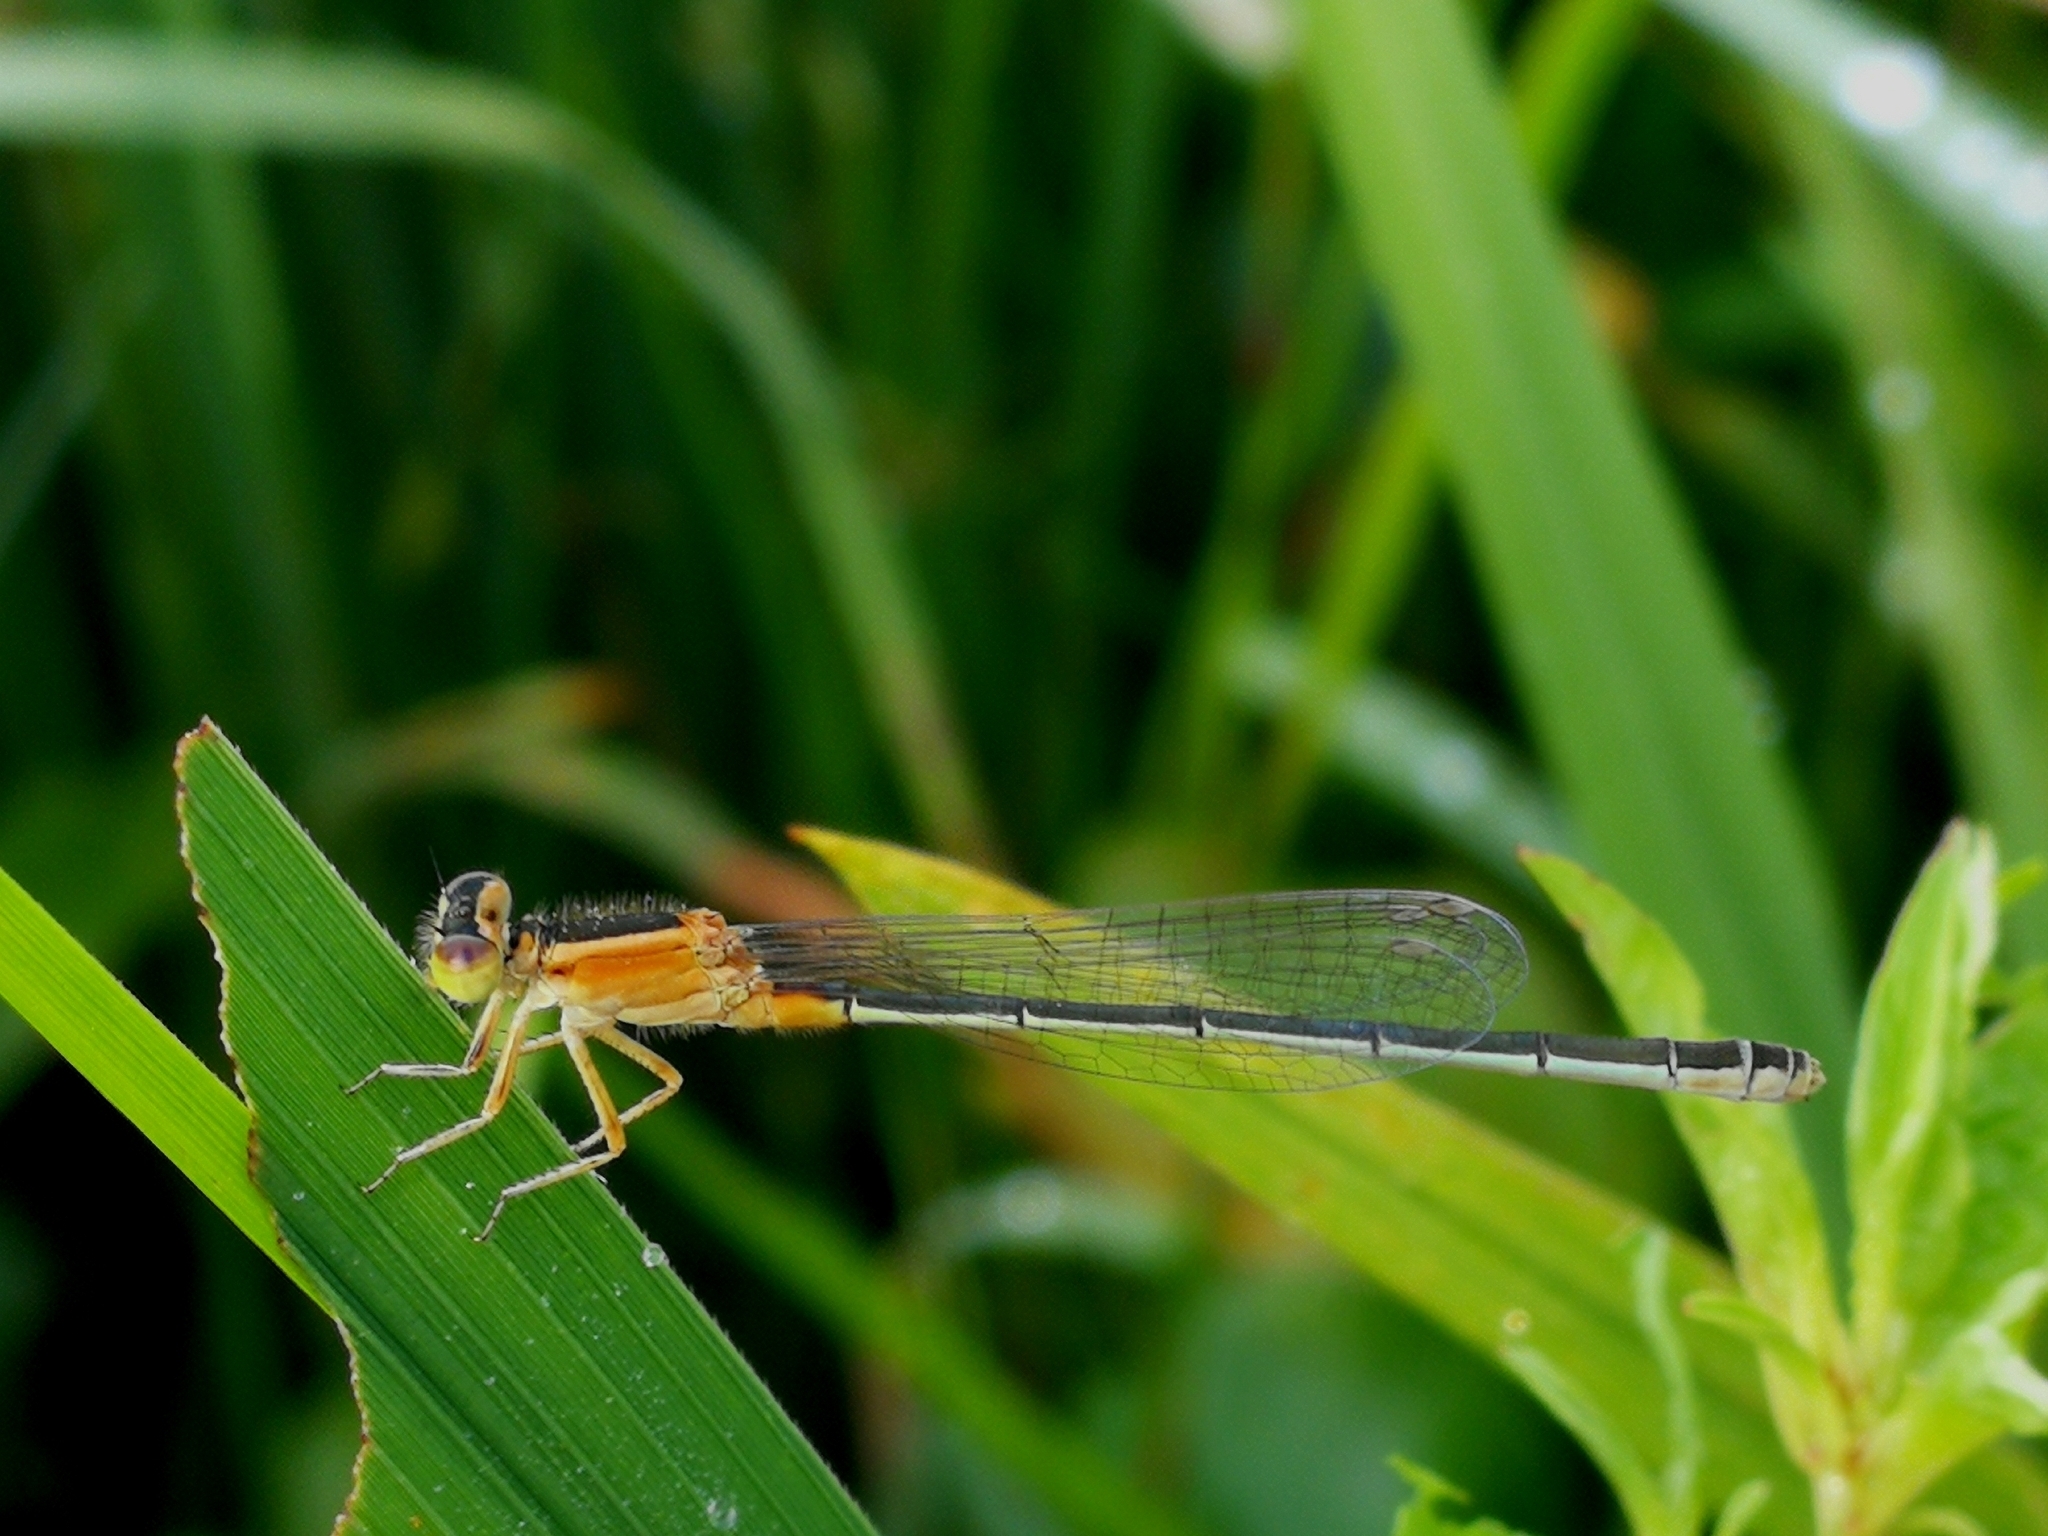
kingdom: Animalia
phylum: Arthropoda
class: Insecta
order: Odonata
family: Coenagrionidae
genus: Ischnura
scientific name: Ischnura senegalensis
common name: Tropical bluetail
